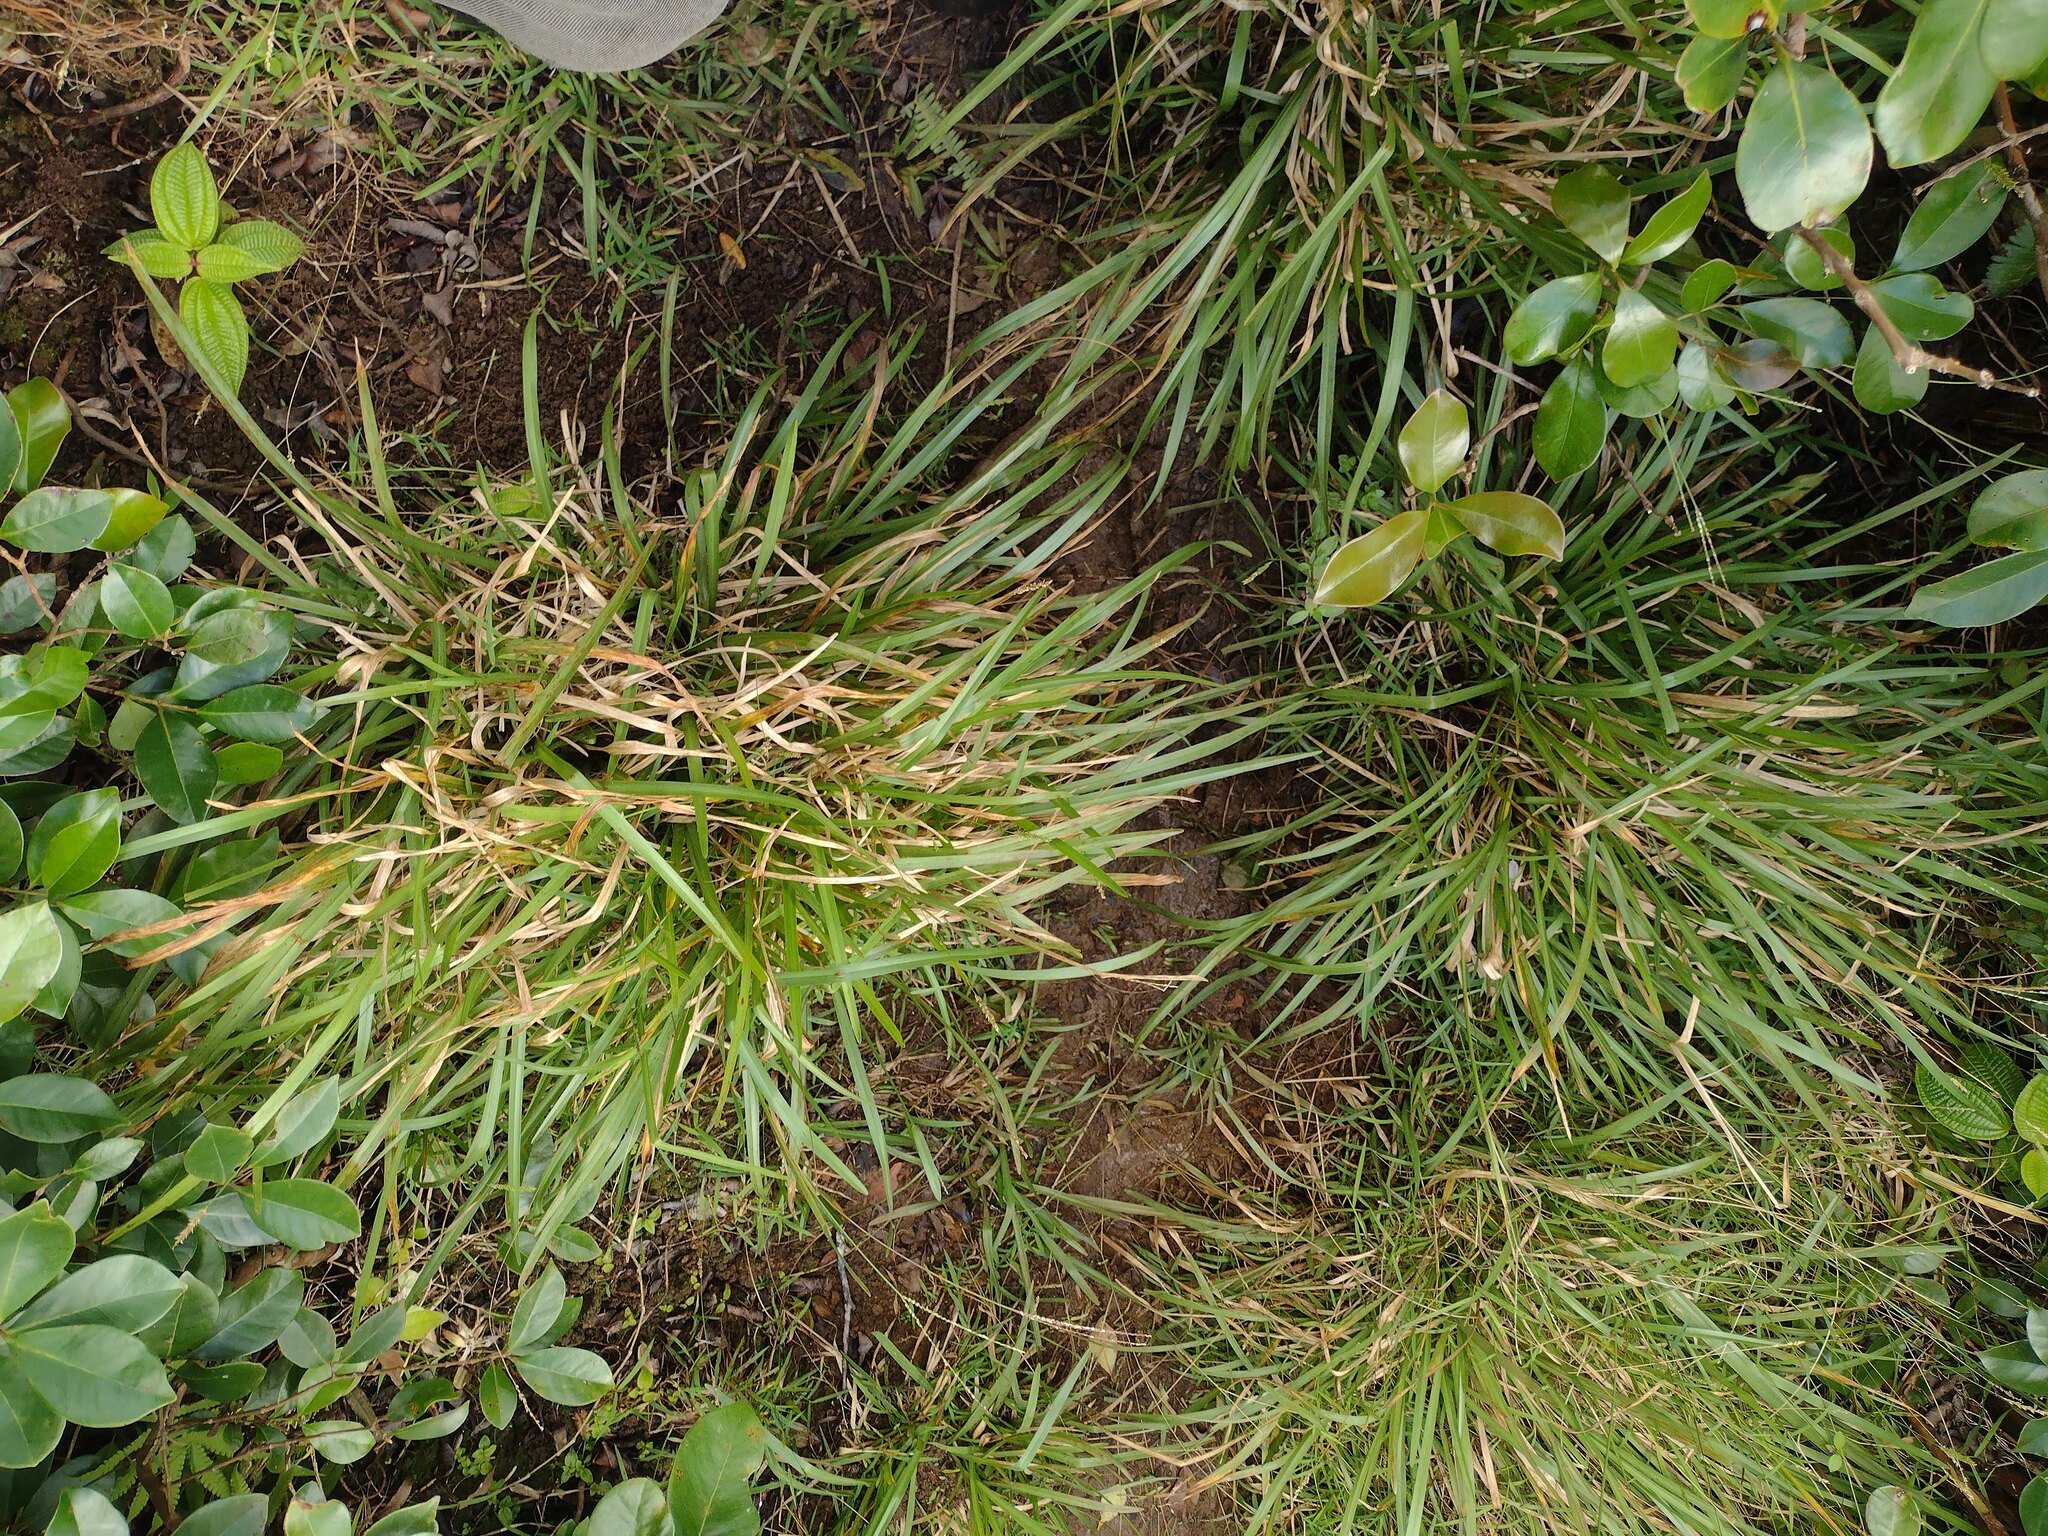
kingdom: Plantae
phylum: Tracheophyta
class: Liliopsida
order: Poales
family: Poaceae
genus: Axonopus
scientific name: Axonopus fissifolius
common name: Common carpetgrass
